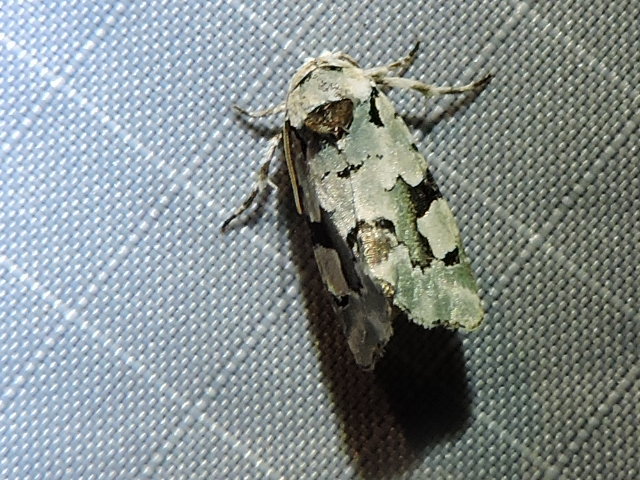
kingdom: Animalia
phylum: Arthropoda
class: Insecta
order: Lepidoptera
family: Noctuidae
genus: Emarginea
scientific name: Emarginea percara
